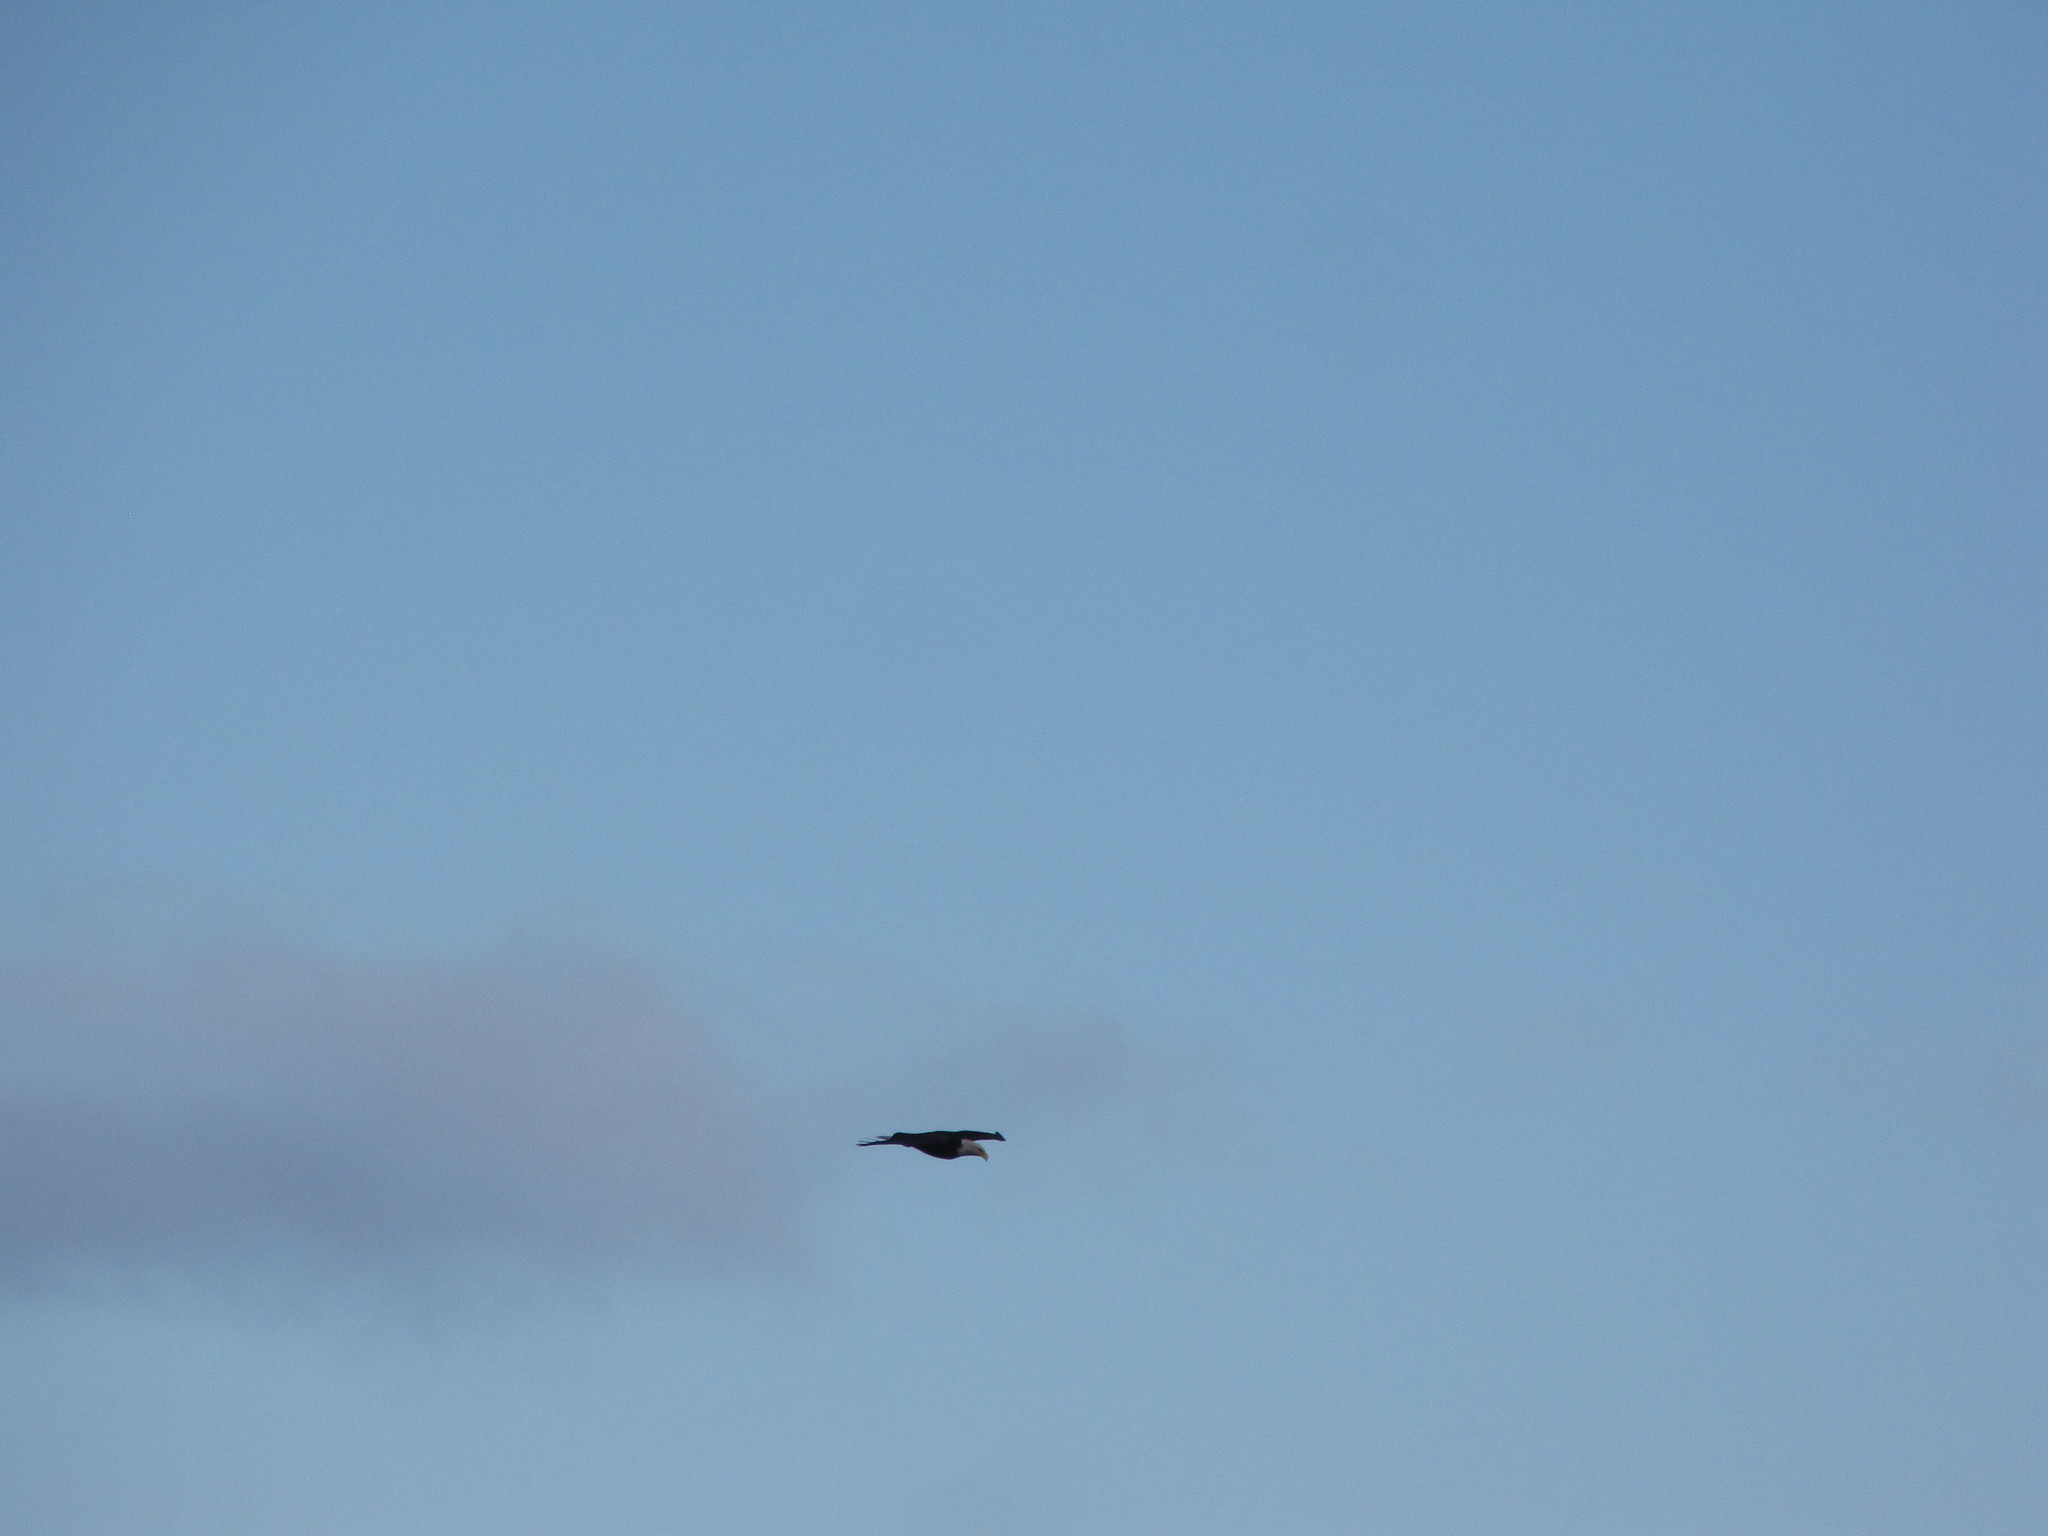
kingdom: Animalia
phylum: Chordata
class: Aves
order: Accipitriformes
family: Accipitridae
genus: Haliaeetus
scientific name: Haliaeetus leucocephalus
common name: Bald eagle
